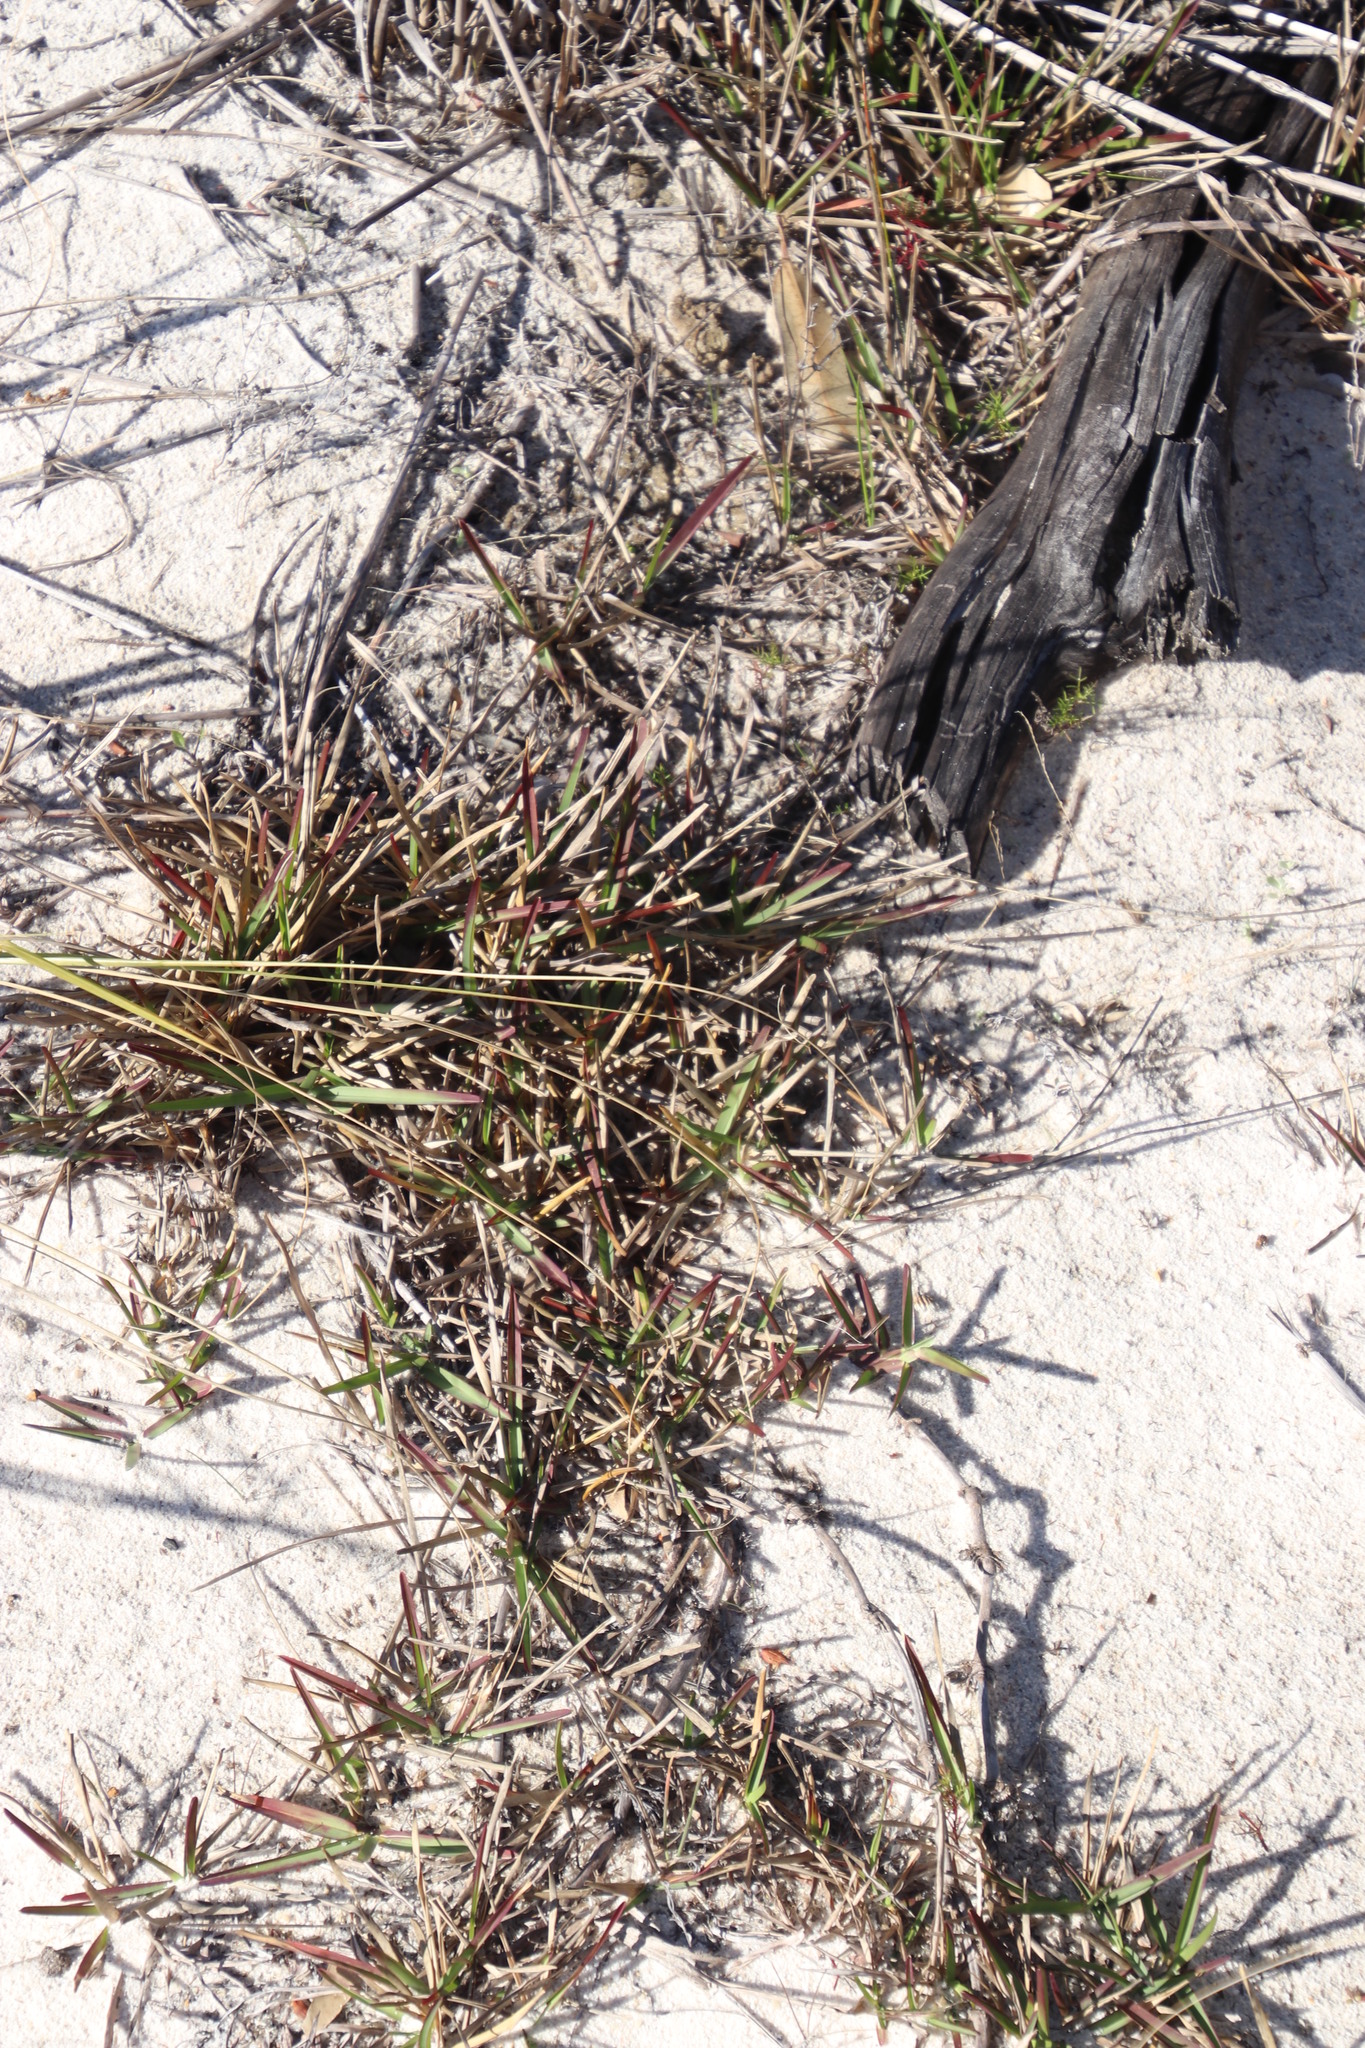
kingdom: Plantae
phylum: Tracheophyta
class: Liliopsida
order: Poales
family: Poaceae
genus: Stenotaphrum
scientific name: Stenotaphrum secundatum
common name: St. augustine grass
